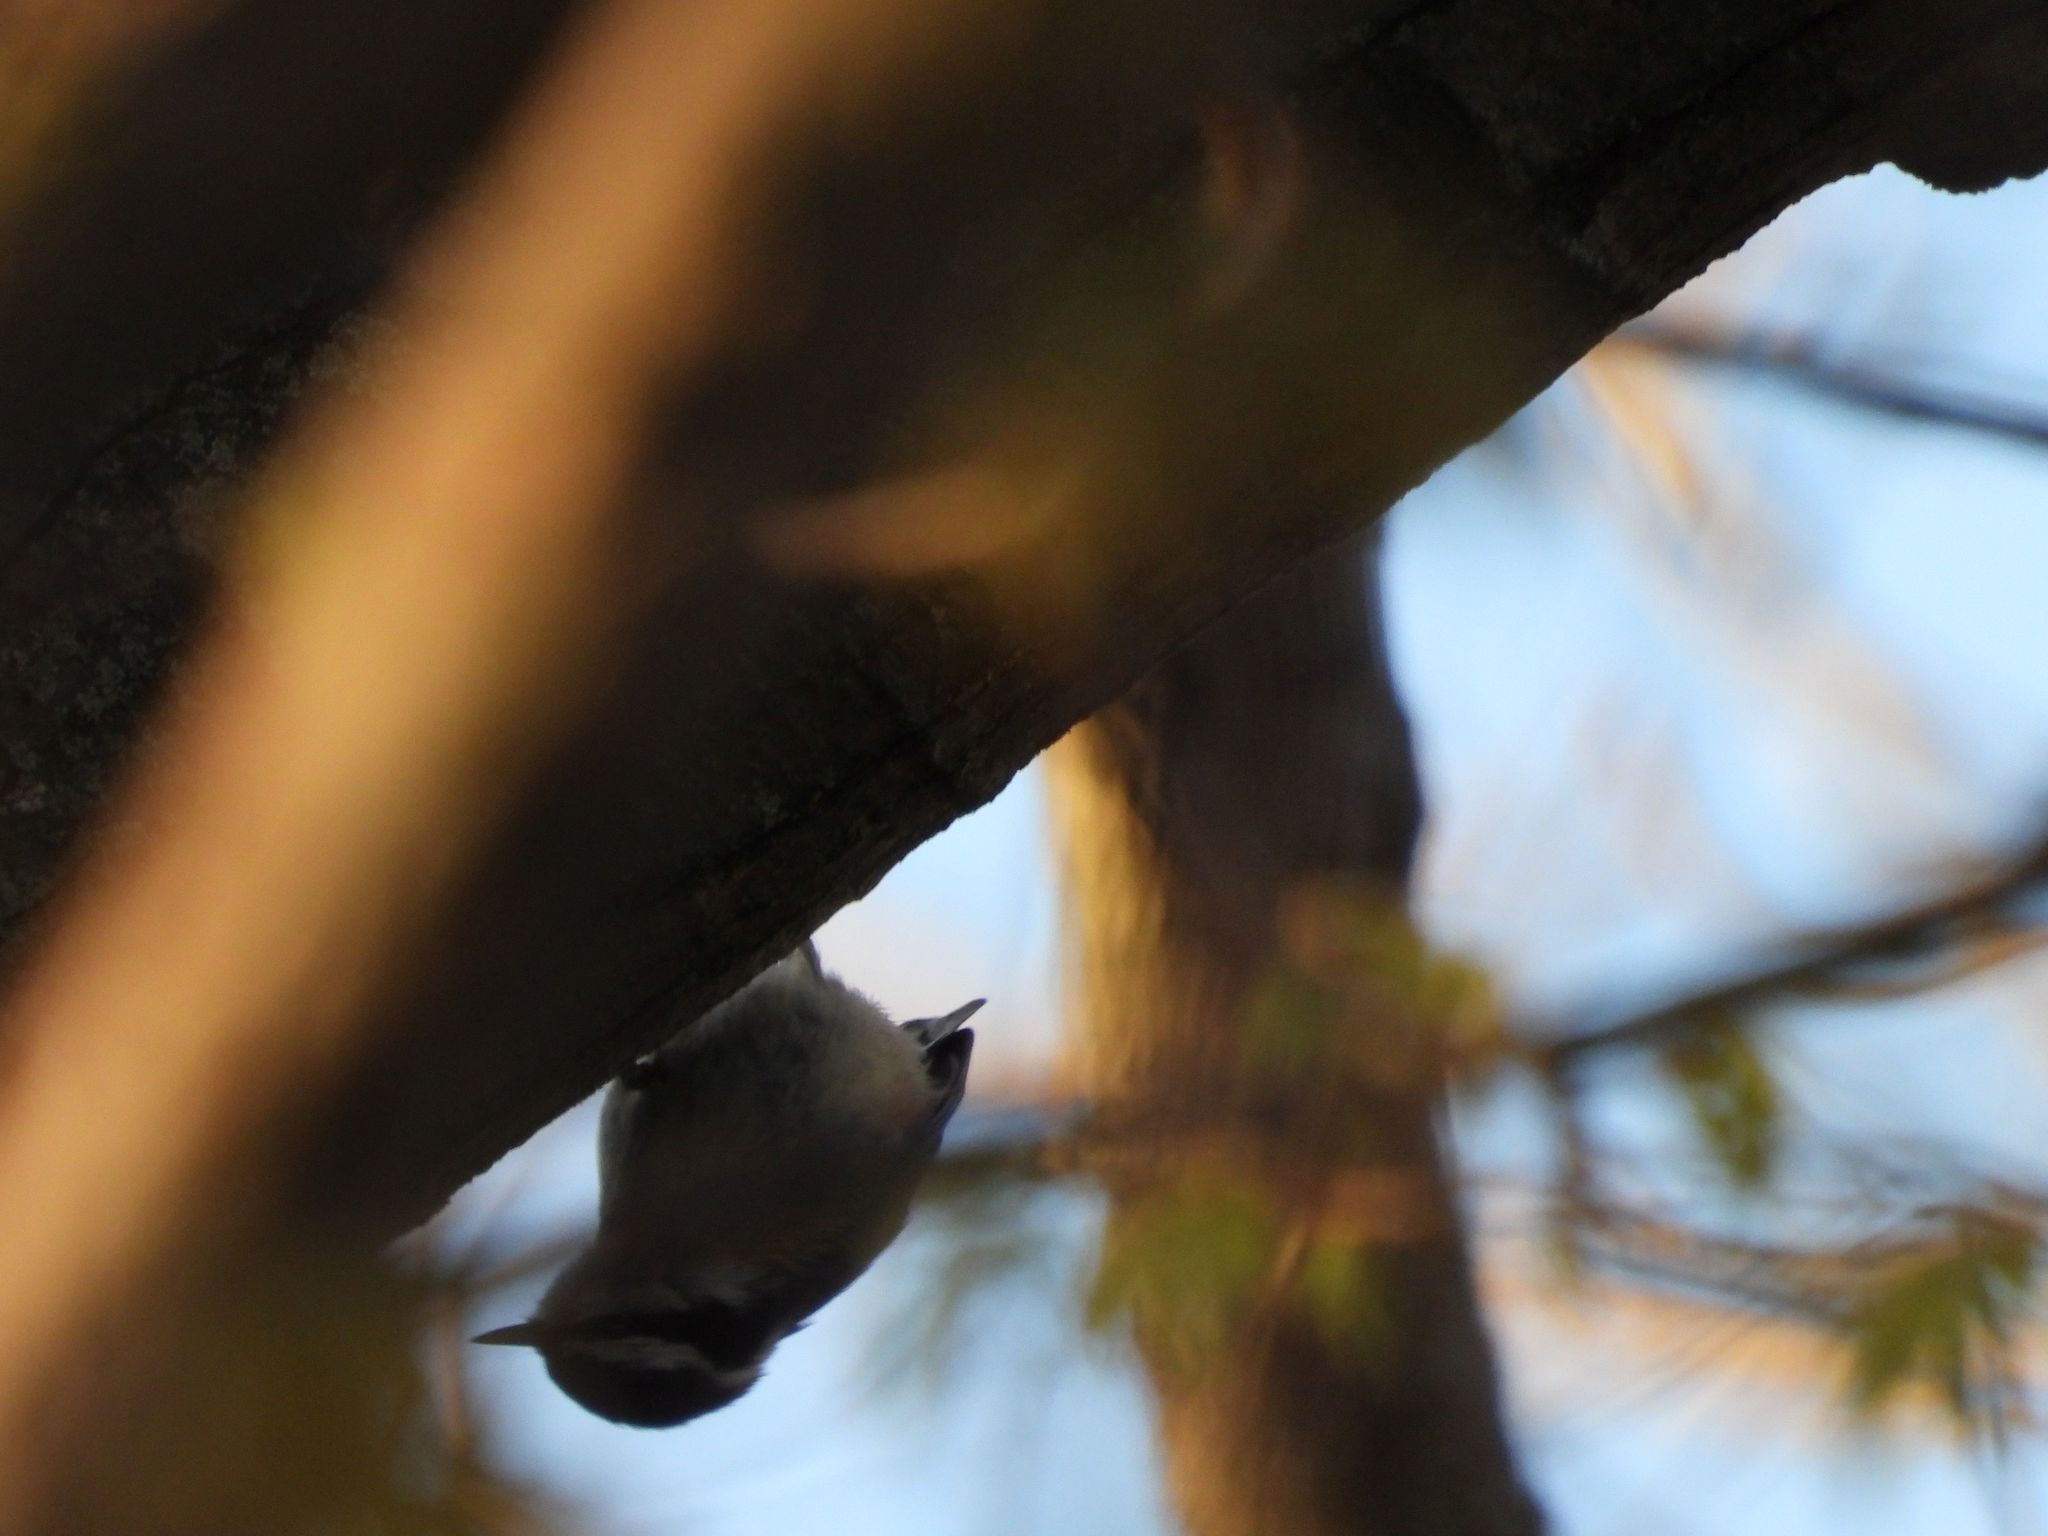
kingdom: Animalia
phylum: Chordata
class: Aves
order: Passeriformes
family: Sittidae
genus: Sitta
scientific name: Sitta canadensis
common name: Red-breasted nuthatch
